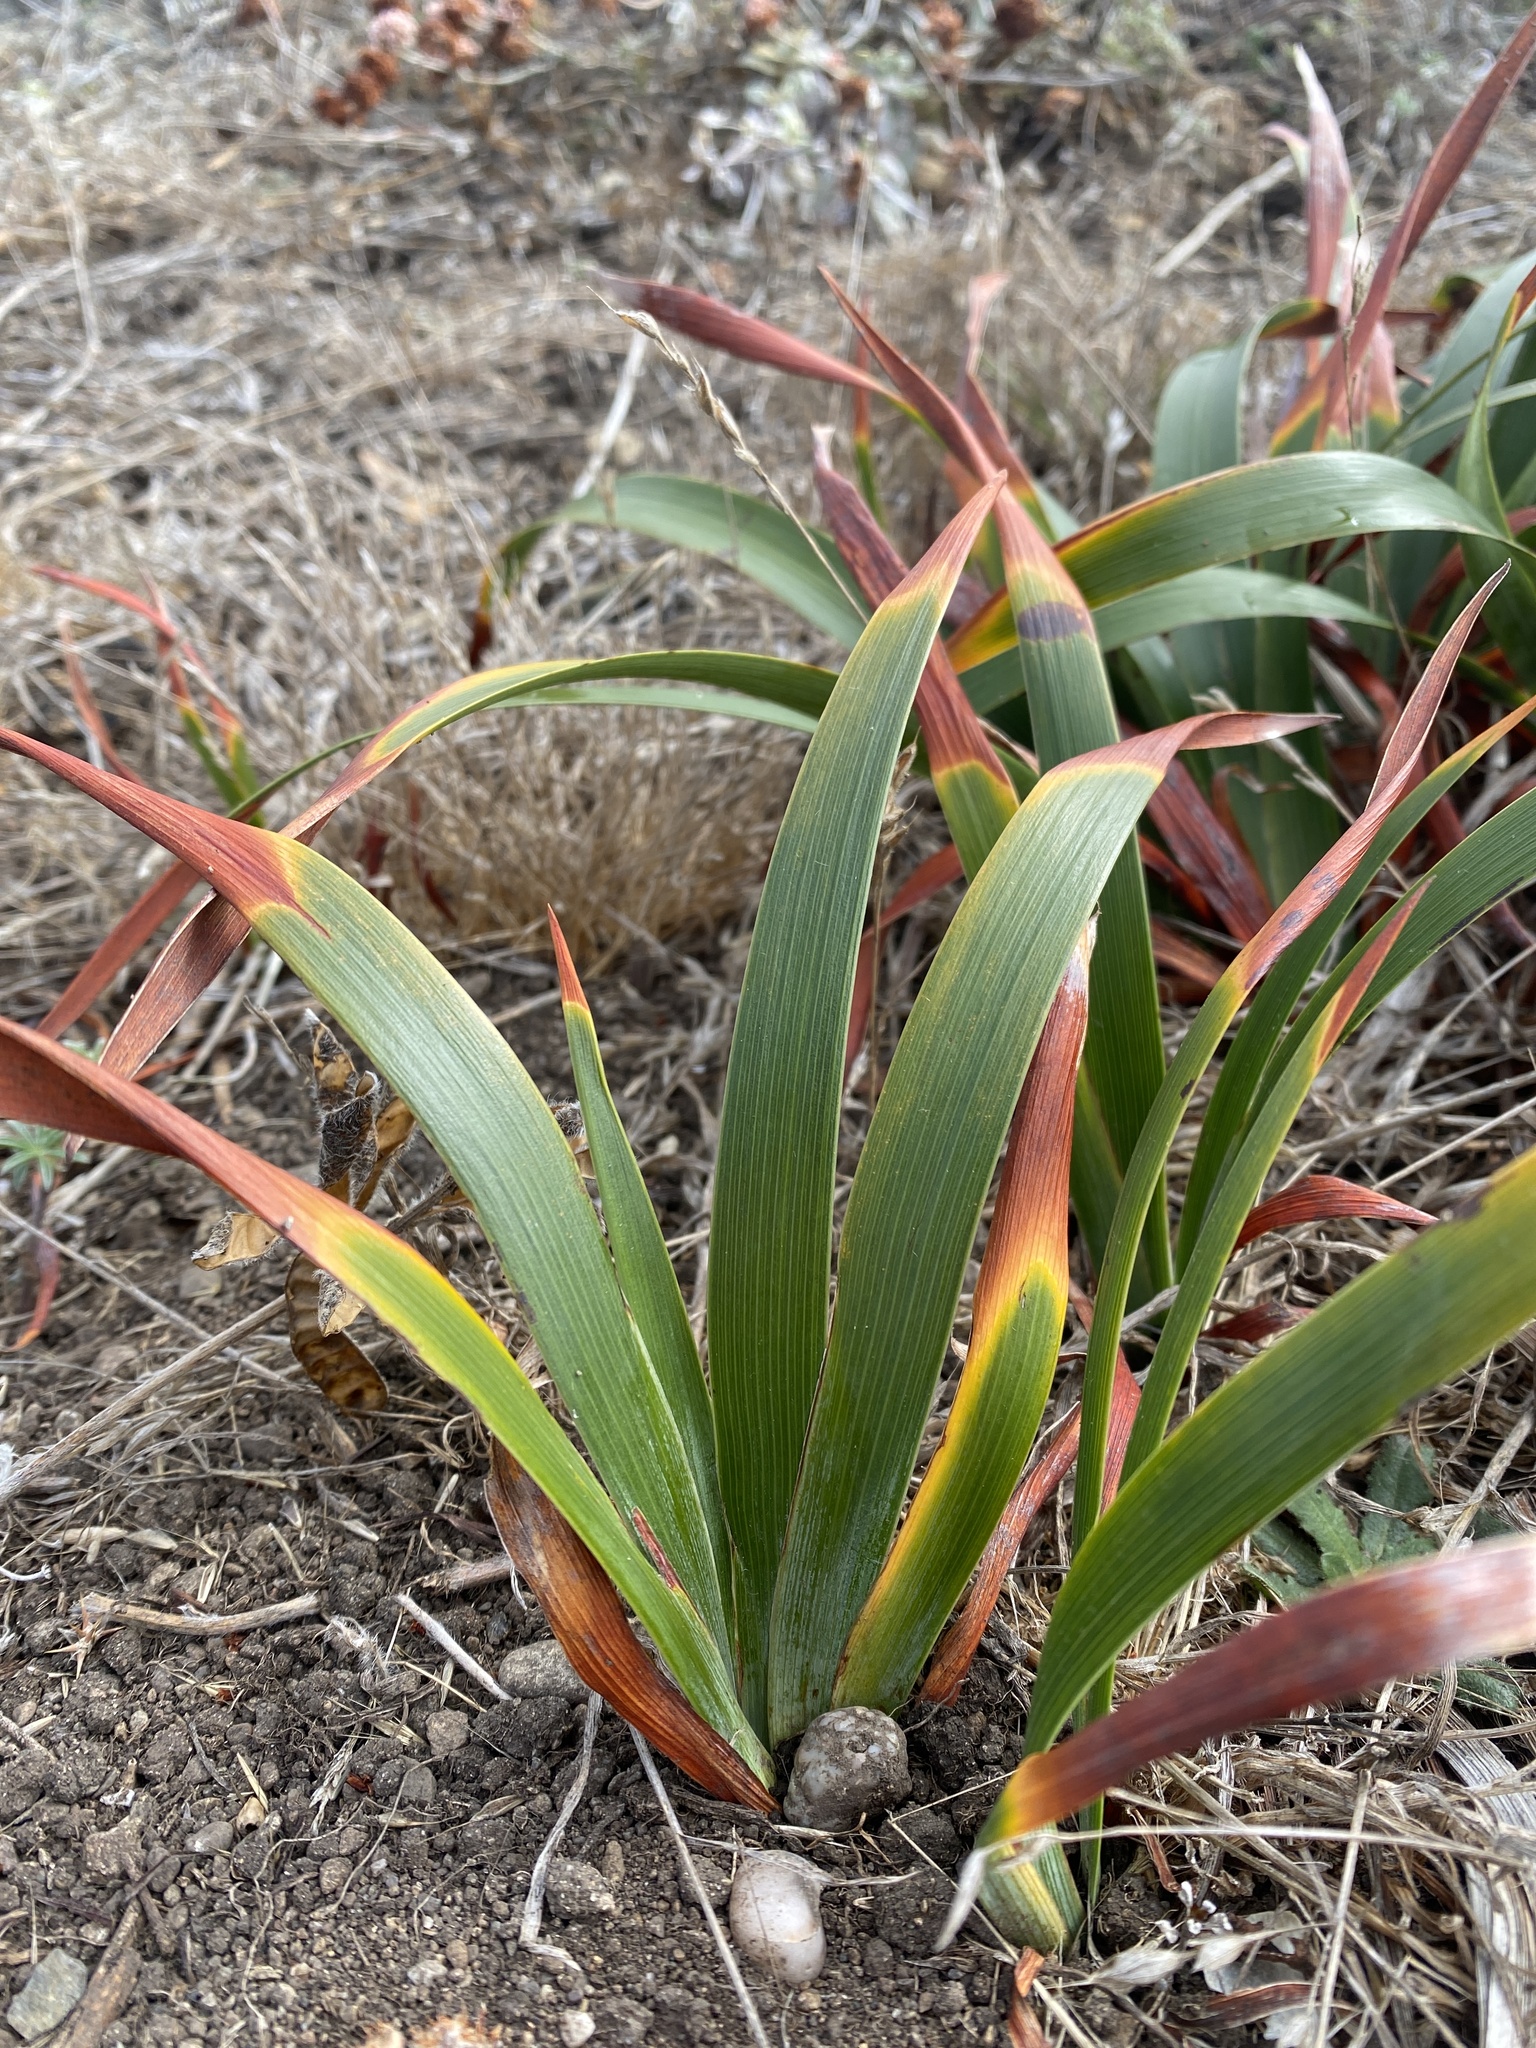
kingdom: Plantae
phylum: Tracheophyta
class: Liliopsida
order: Asparagales
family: Iridaceae
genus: Iris
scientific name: Iris douglasiana
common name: Marin iris
